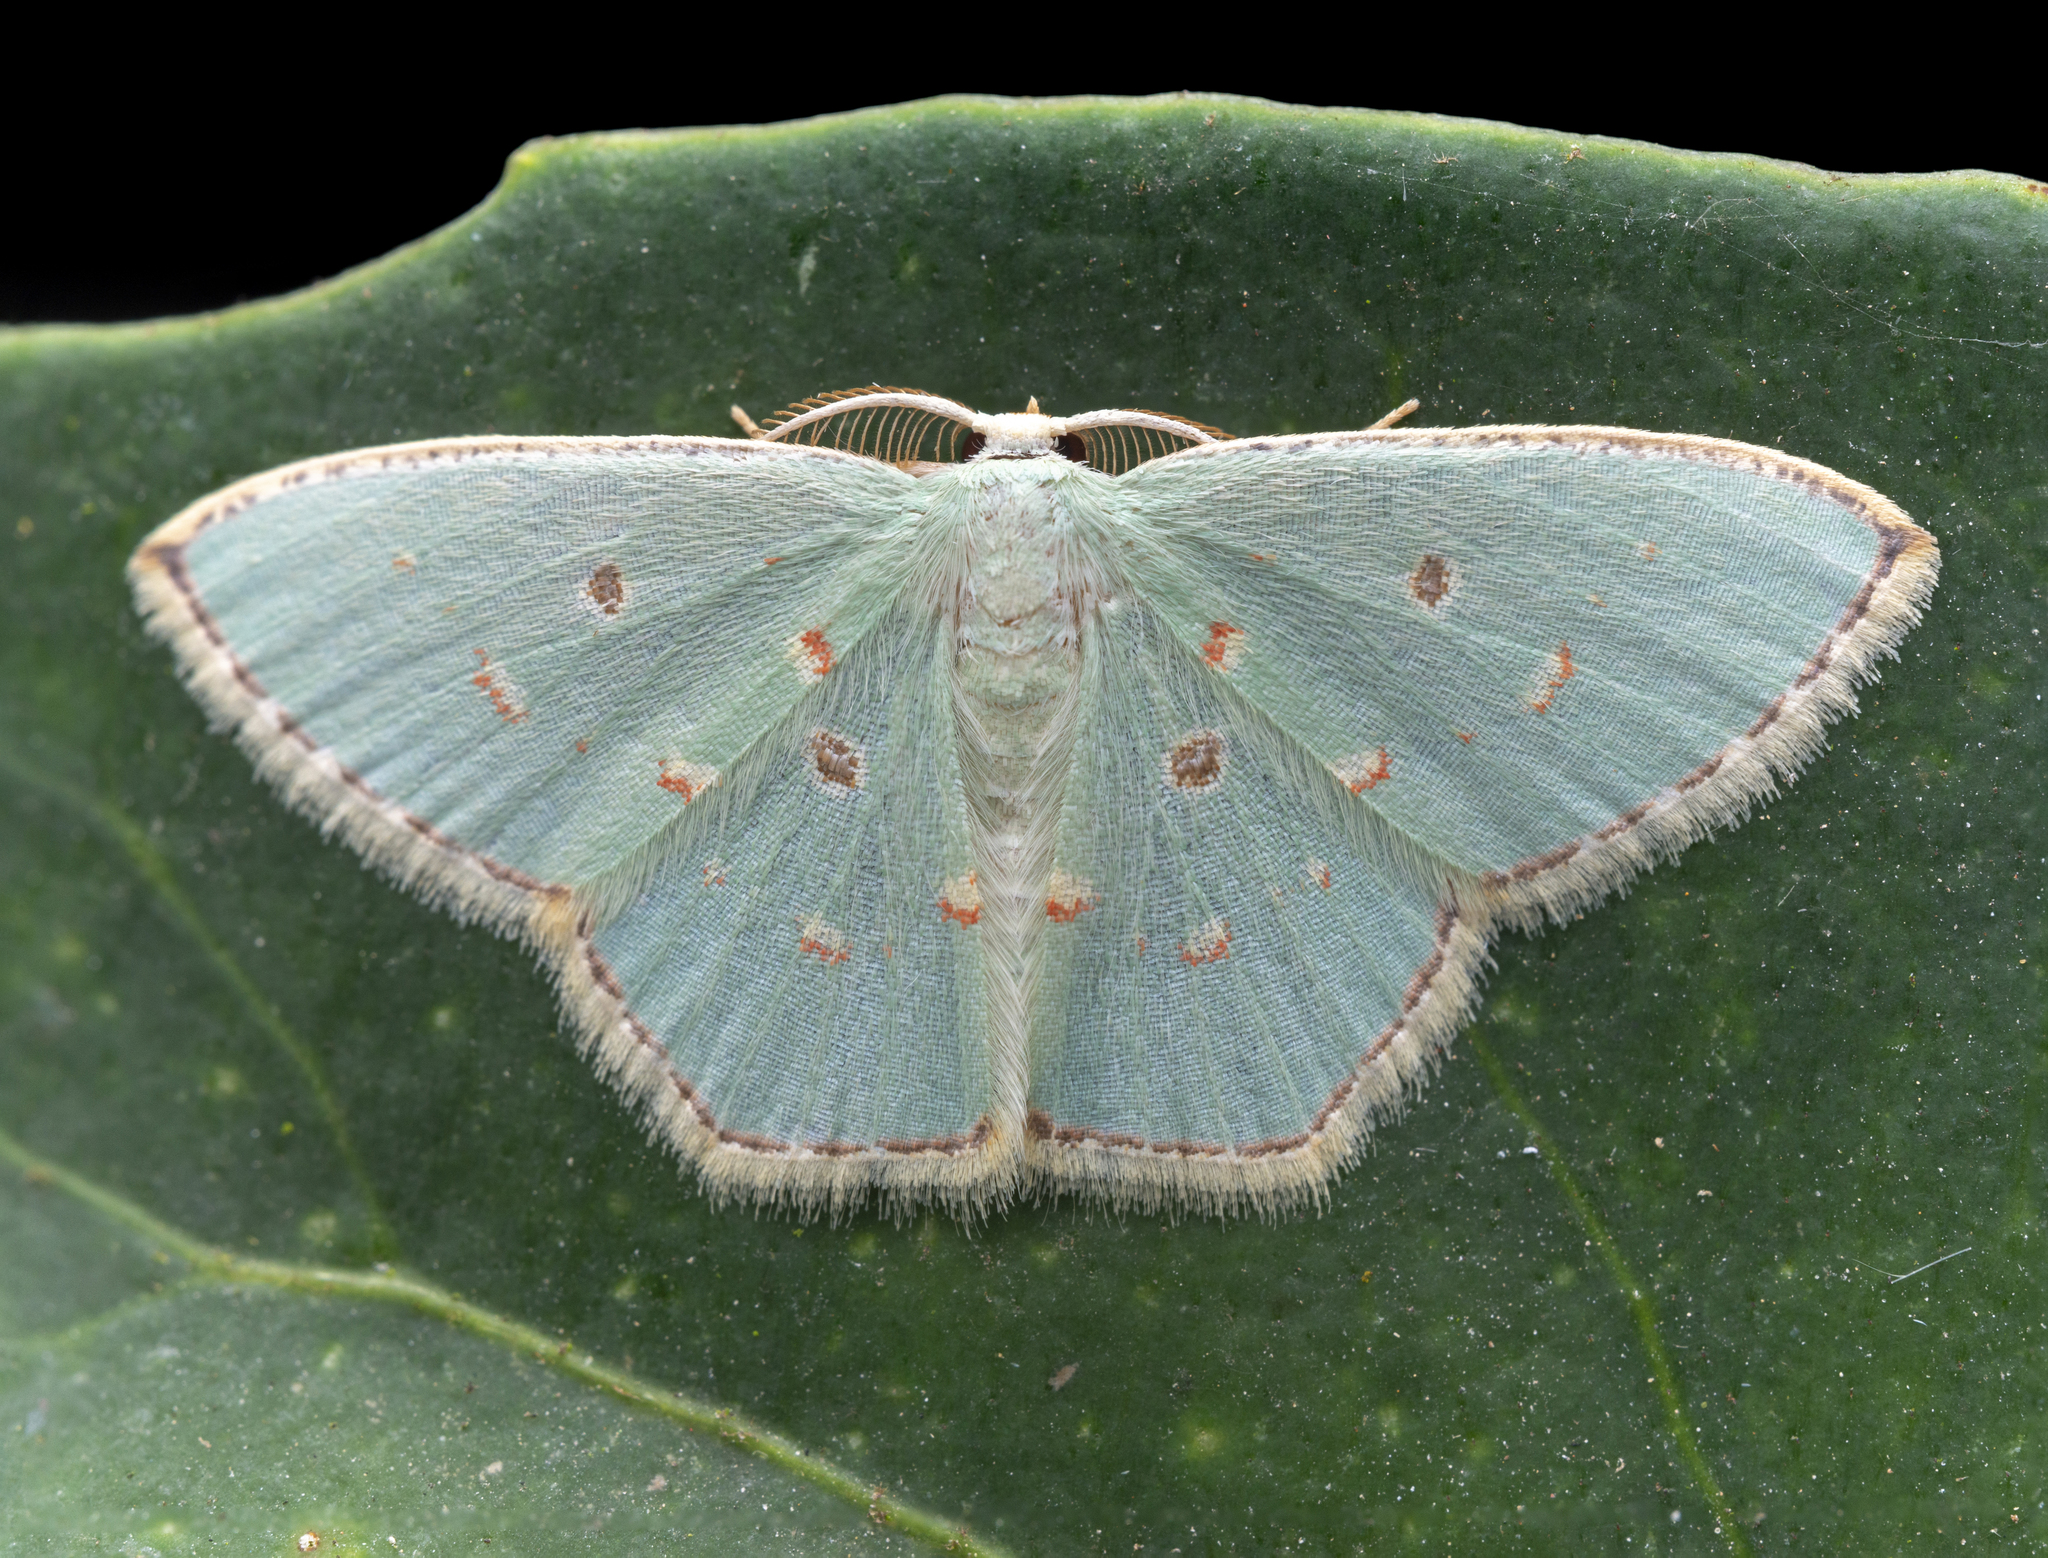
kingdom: Animalia
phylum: Arthropoda
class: Insecta
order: Lepidoptera
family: Geometridae
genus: Comostola
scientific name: Comostola meritaria
